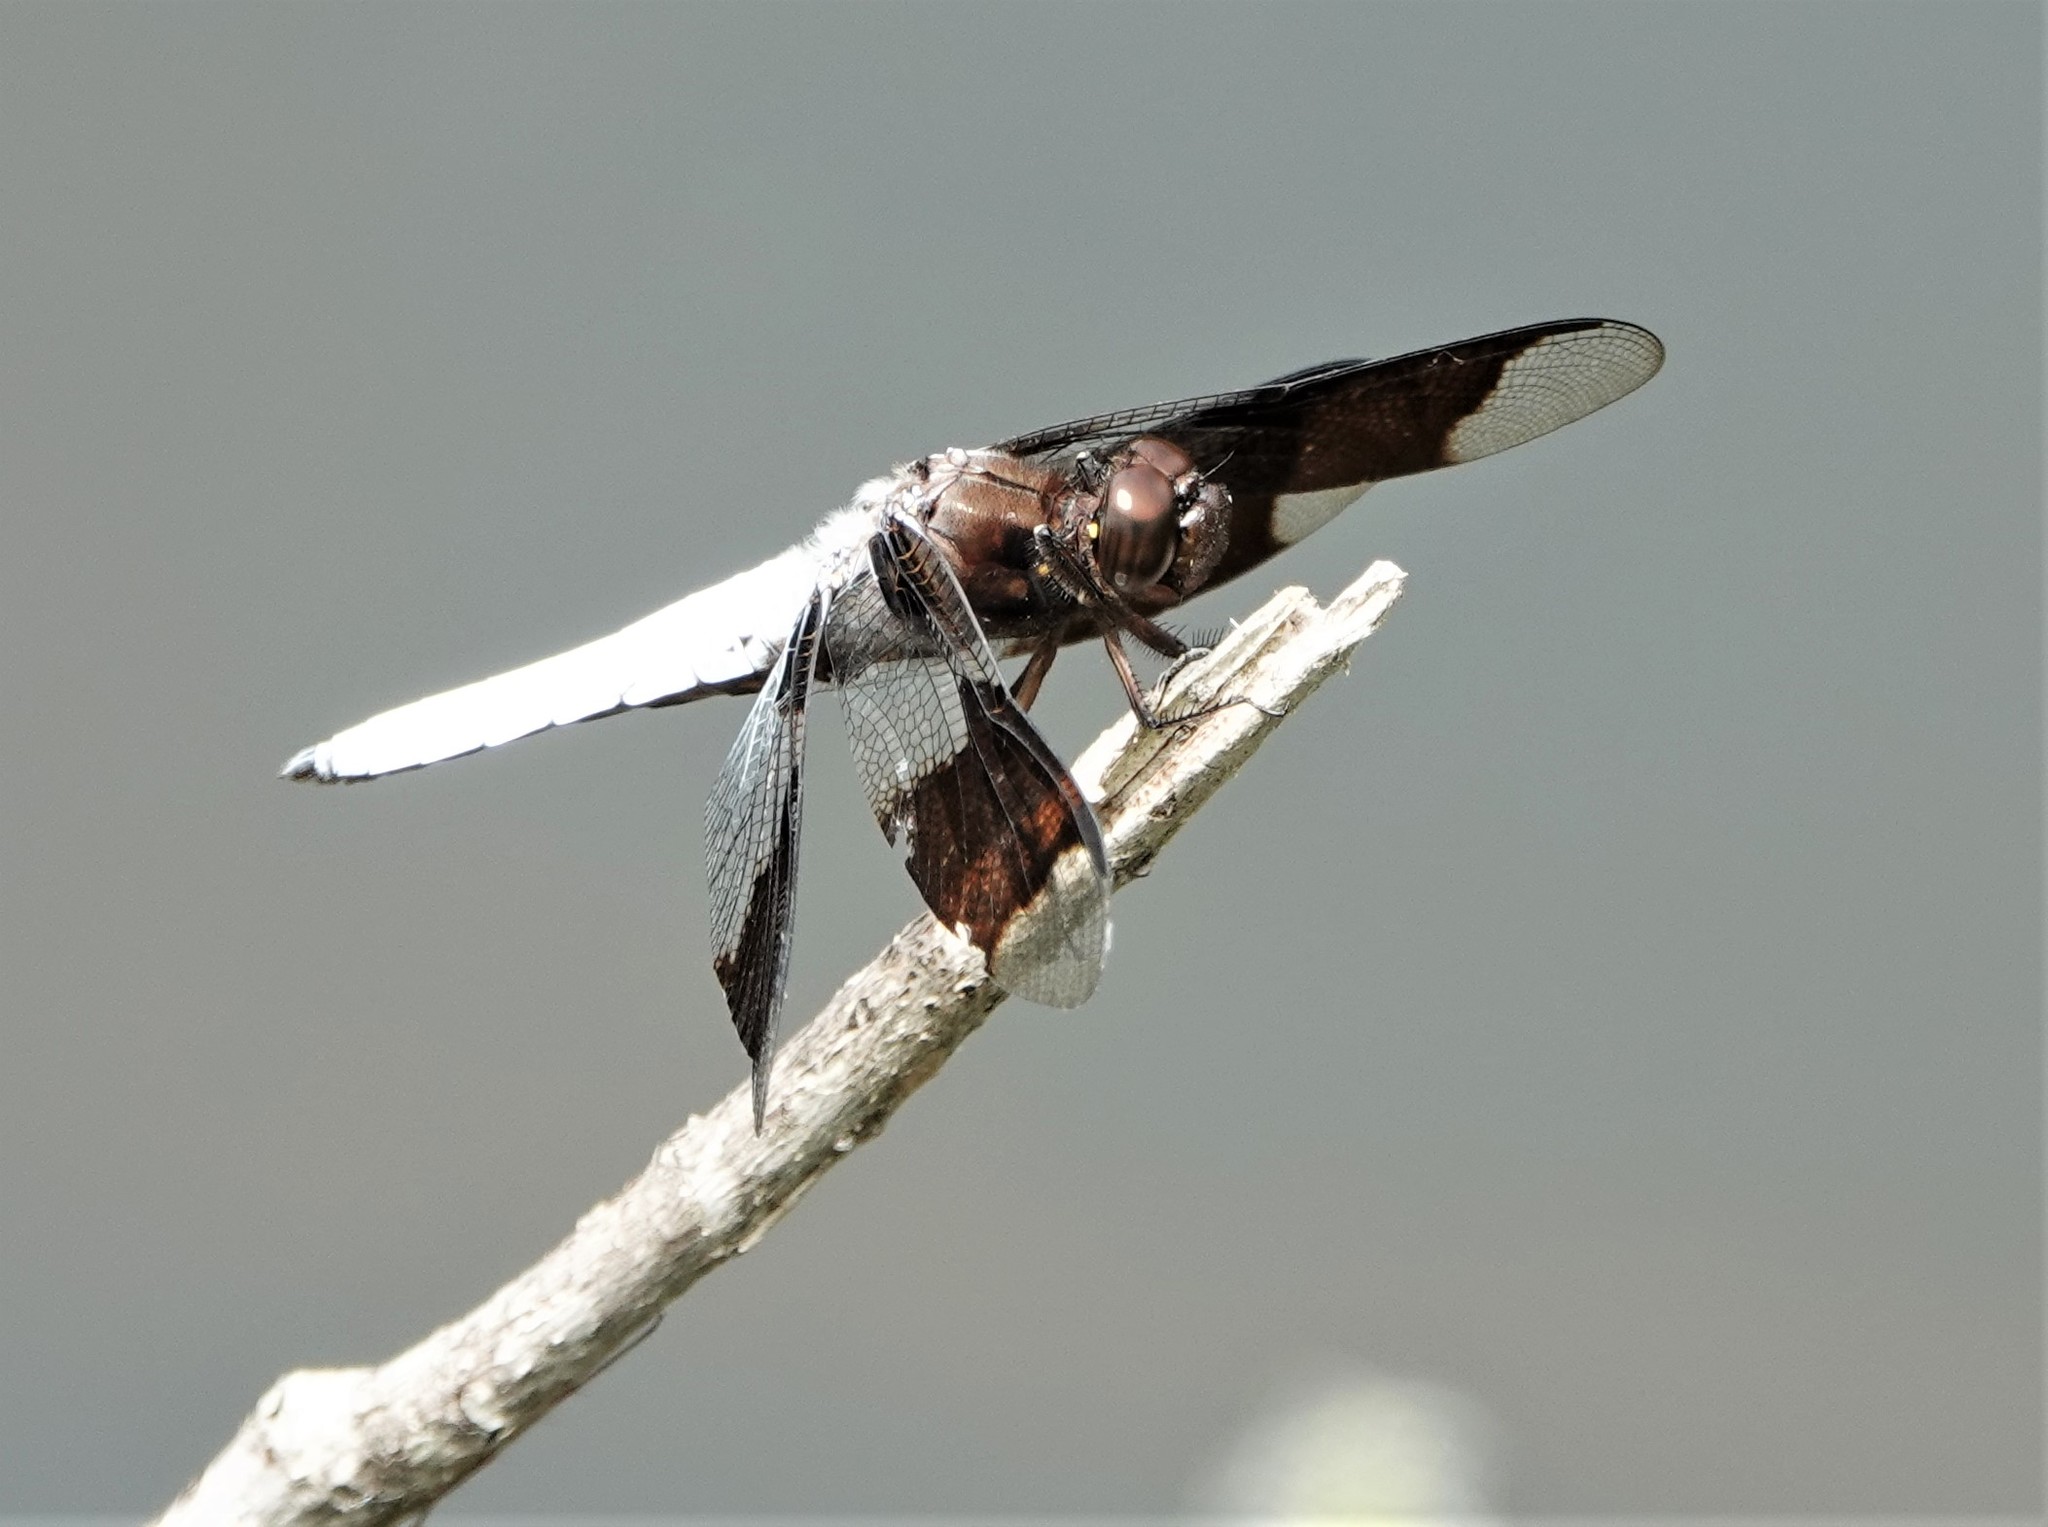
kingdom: Animalia
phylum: Arthropoda
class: Insecta
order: Odonata
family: Libellulidae
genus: Plathemis
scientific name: Plathemis lydia
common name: Common whitetail
